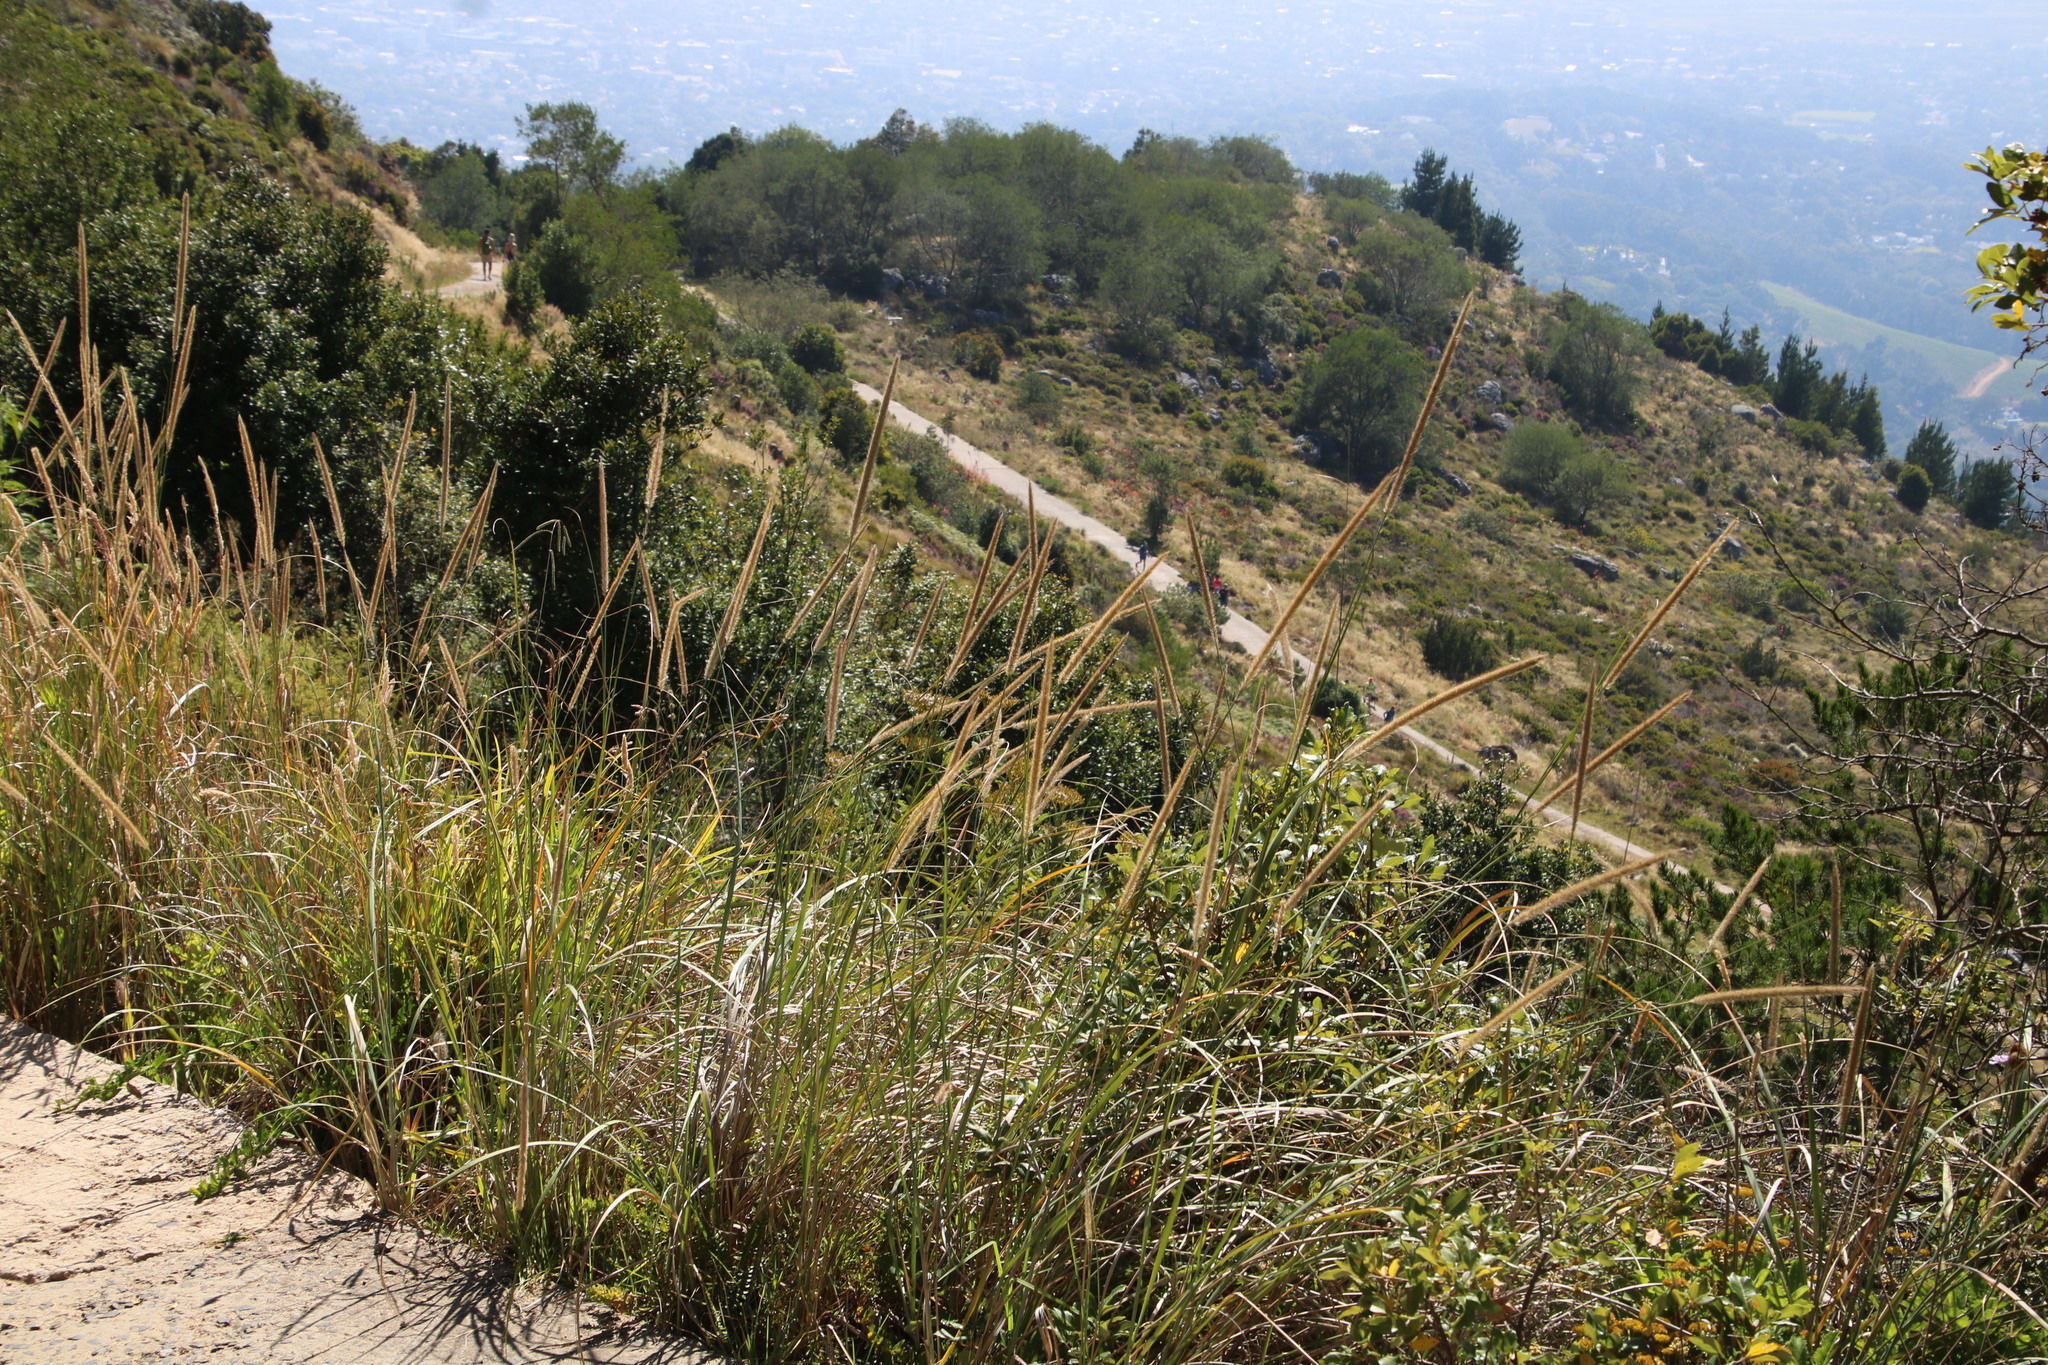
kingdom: Plantae
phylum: Tracheophyta
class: Liliopsida
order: Poales
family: Poaceae
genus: Cenchrus
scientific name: Cenchrus caudatus
